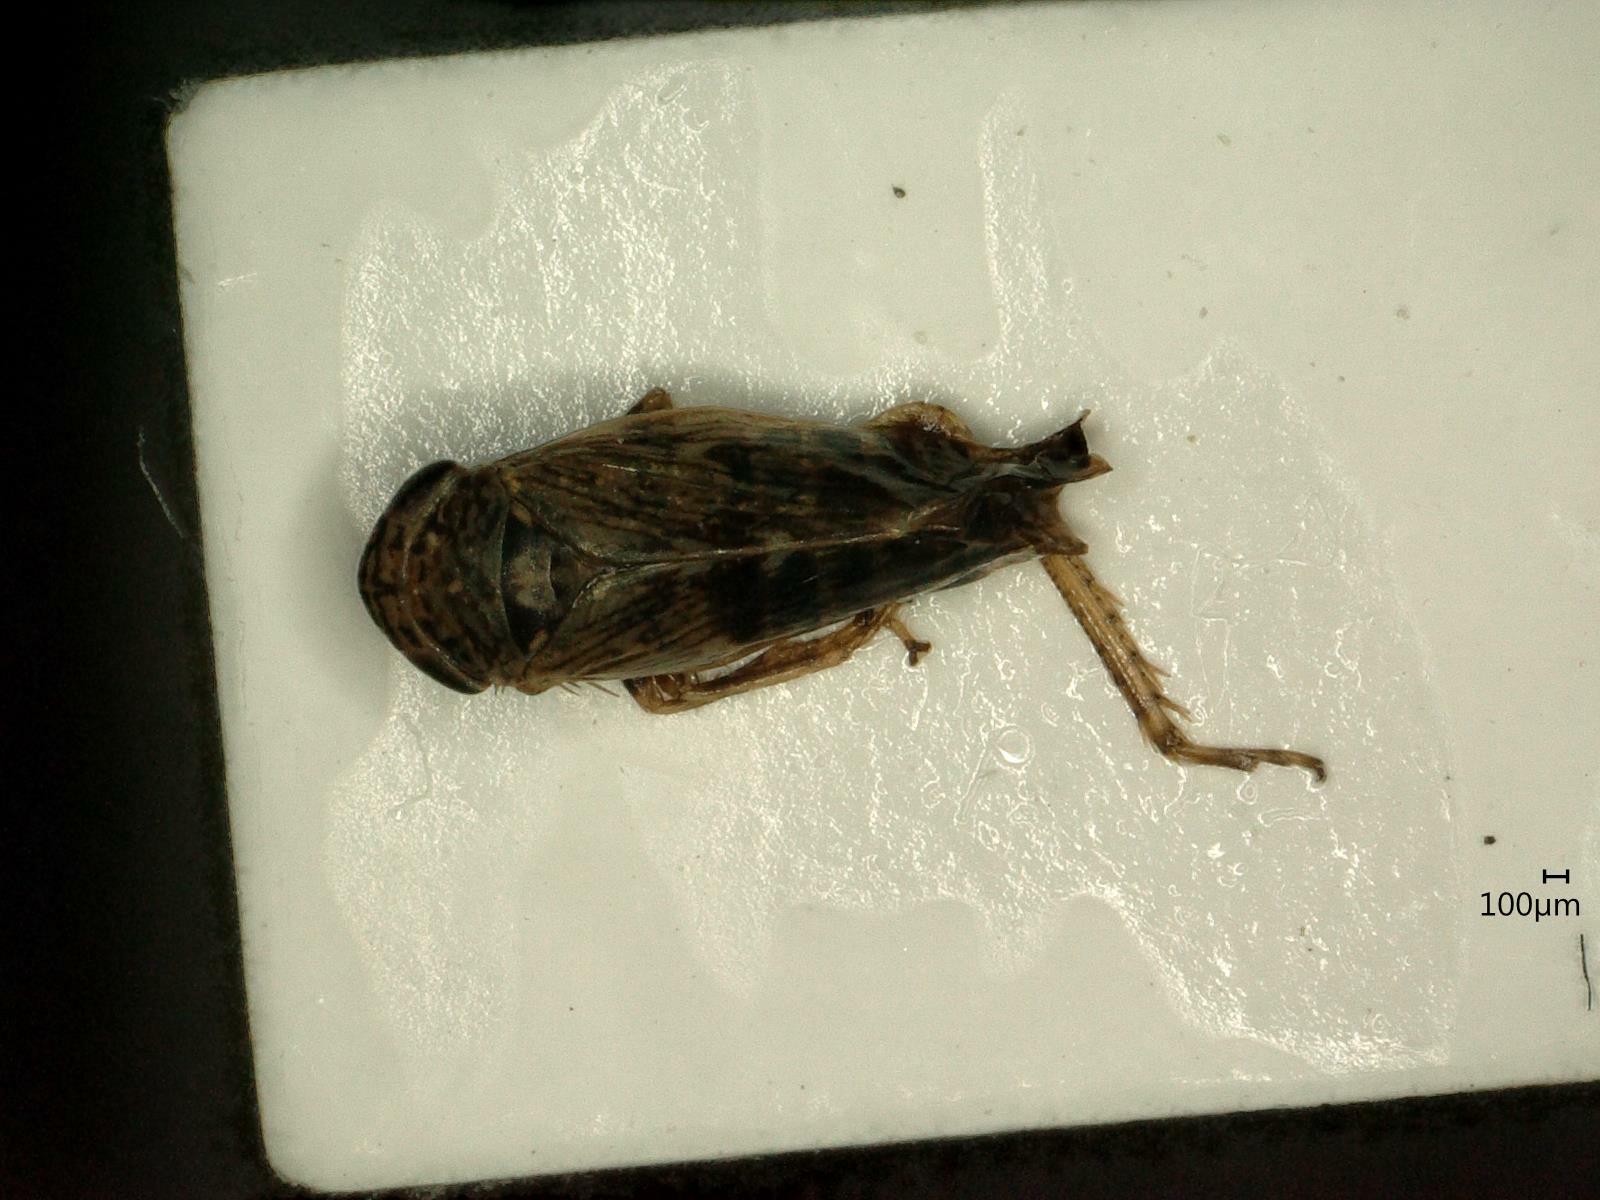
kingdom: Animalia
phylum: Arthropoda
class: Insecta
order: Hemiptera
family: Cicadellidae
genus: Ophiola
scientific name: Ophiola decumana
